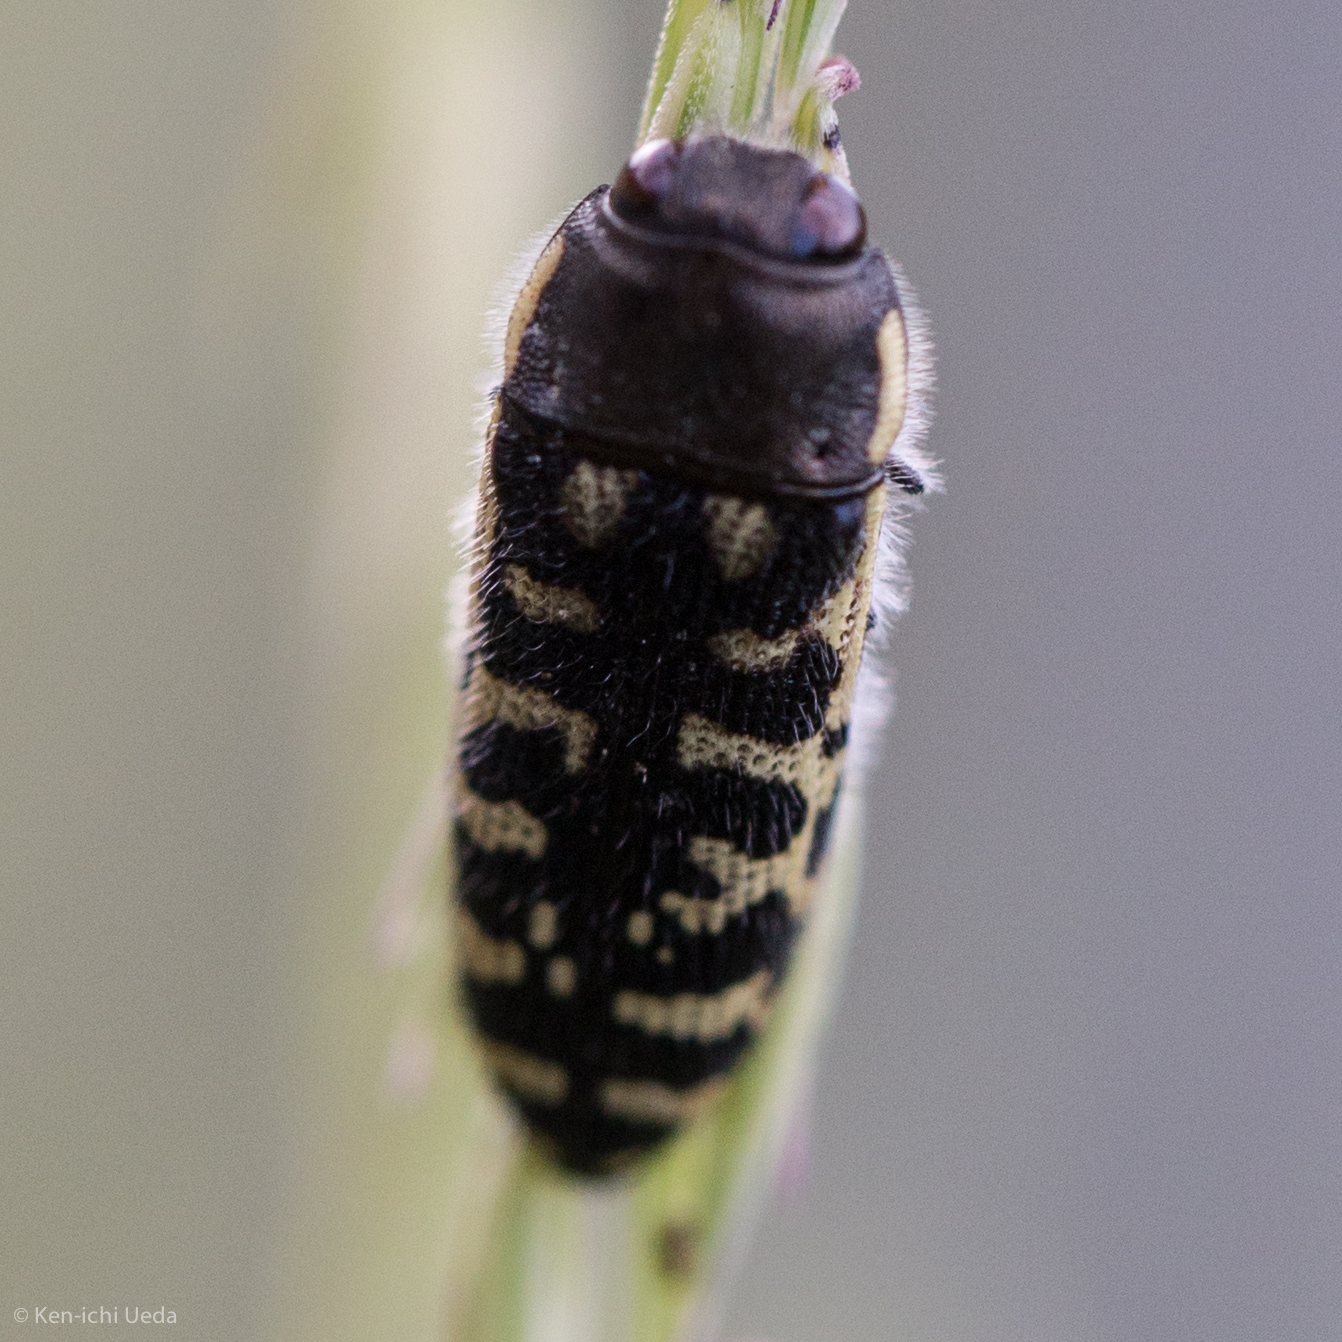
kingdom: Animalia
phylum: Arthropoda
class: Insecta
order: Coleoptera
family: Buprestidae
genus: Acmaeodera
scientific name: Acmaeodera solitaria
